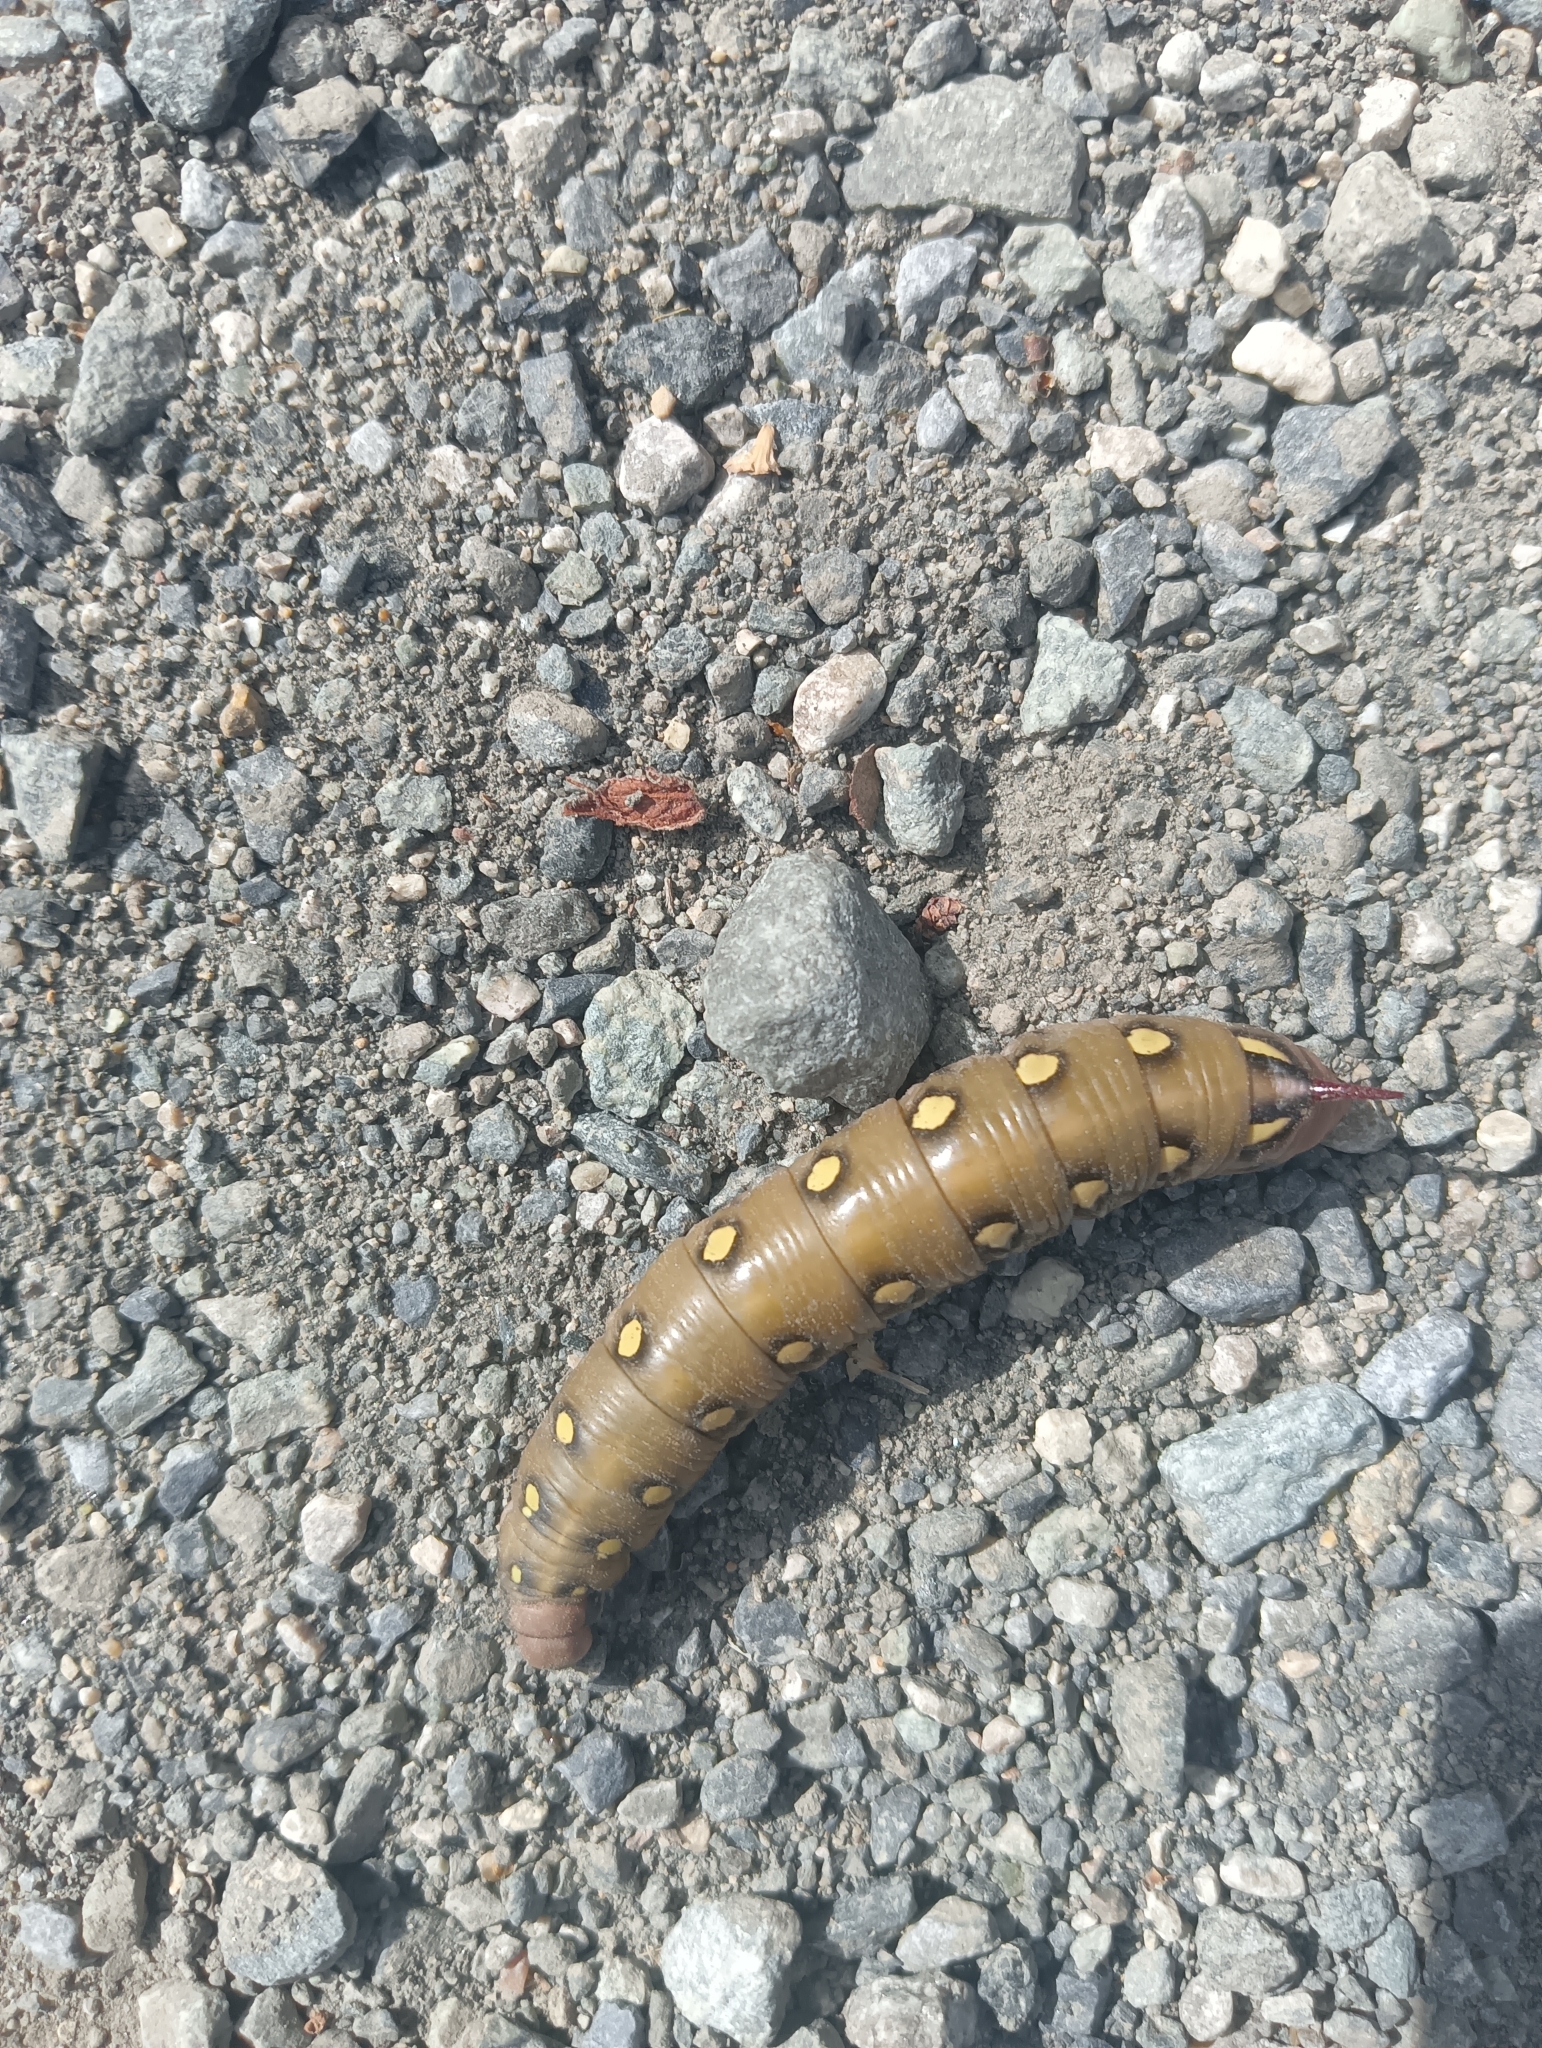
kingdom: Animalia
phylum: Arthropoda
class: Insecta
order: Lepidoptera
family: Sphingidae
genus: Hyles
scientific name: Hyles gallii
